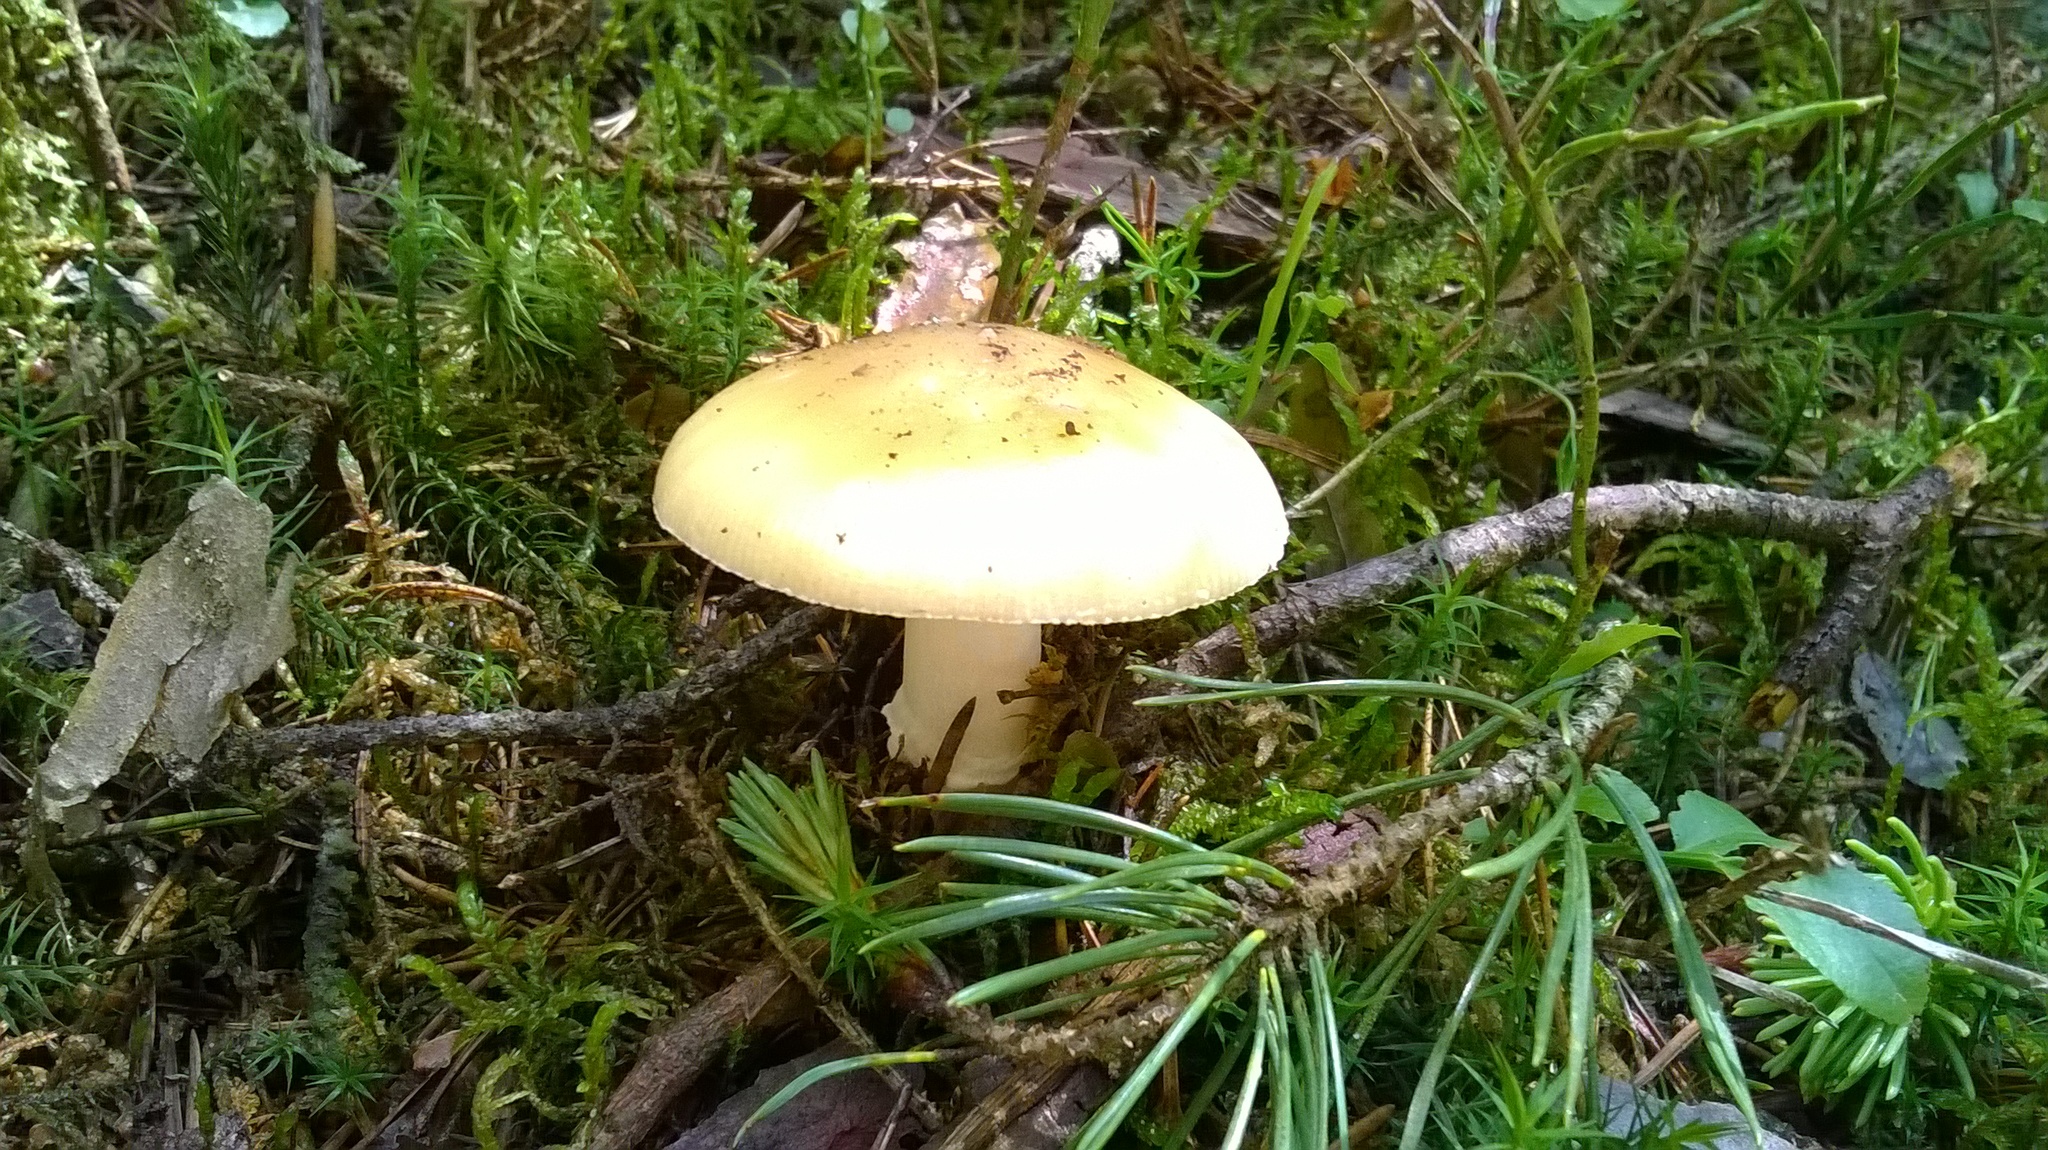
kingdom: Fungi
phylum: Basidiomycota
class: Agaricomycetes
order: Agaricales
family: Amanitaceae
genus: Amanita
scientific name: Amanita gemmata
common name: Jewelled amanita
